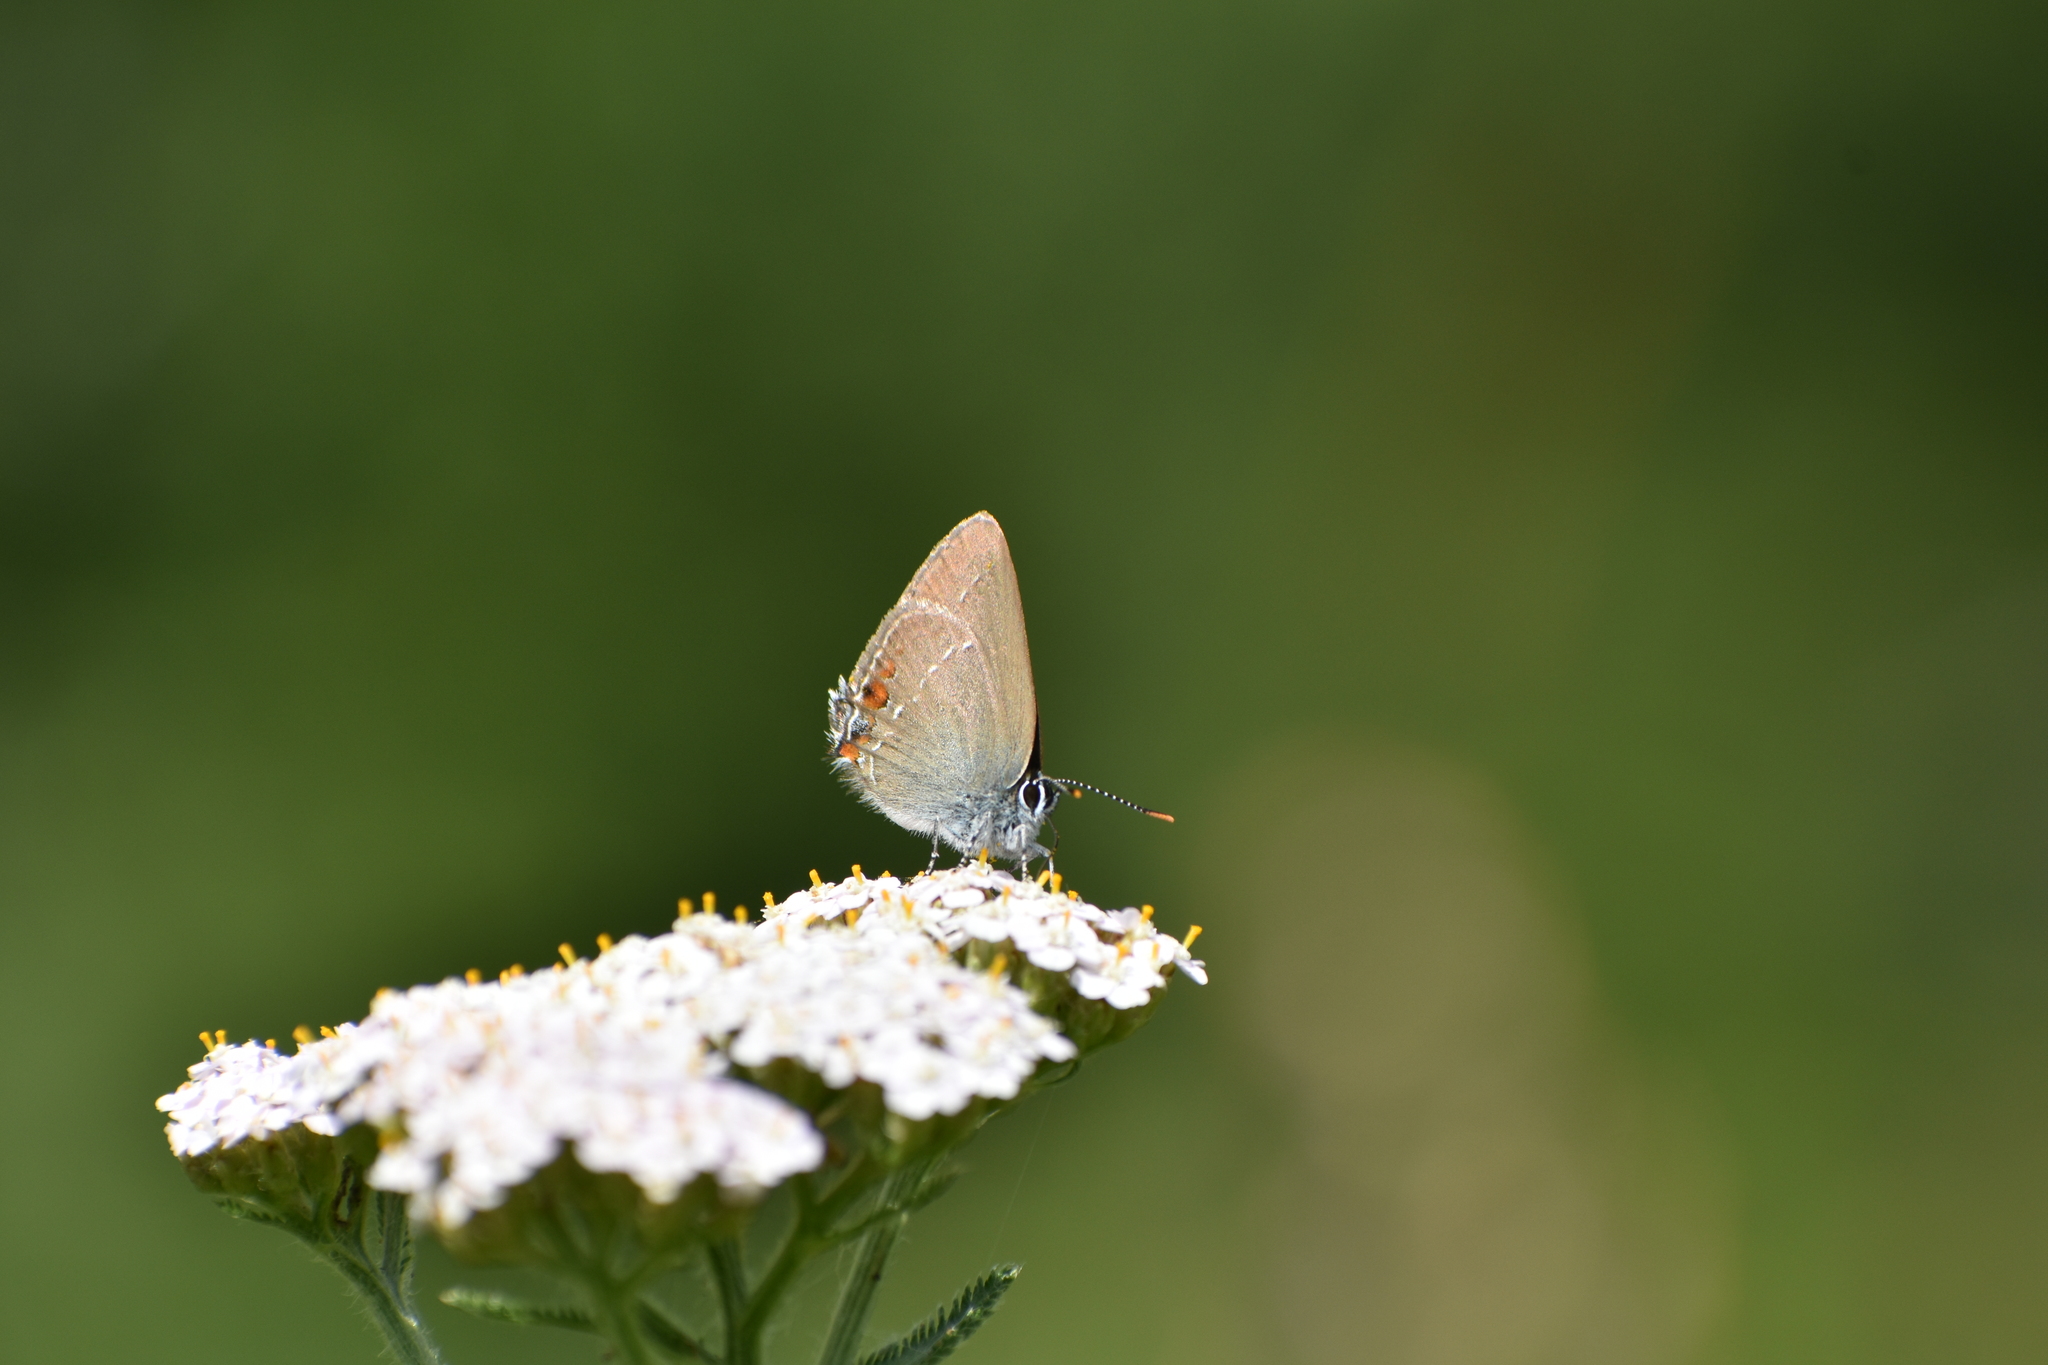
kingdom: Animalia
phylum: Arthropoda
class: Insecta
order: Lepidoptera
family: Lycaenidae
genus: Strymon
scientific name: Strymon acaciae
